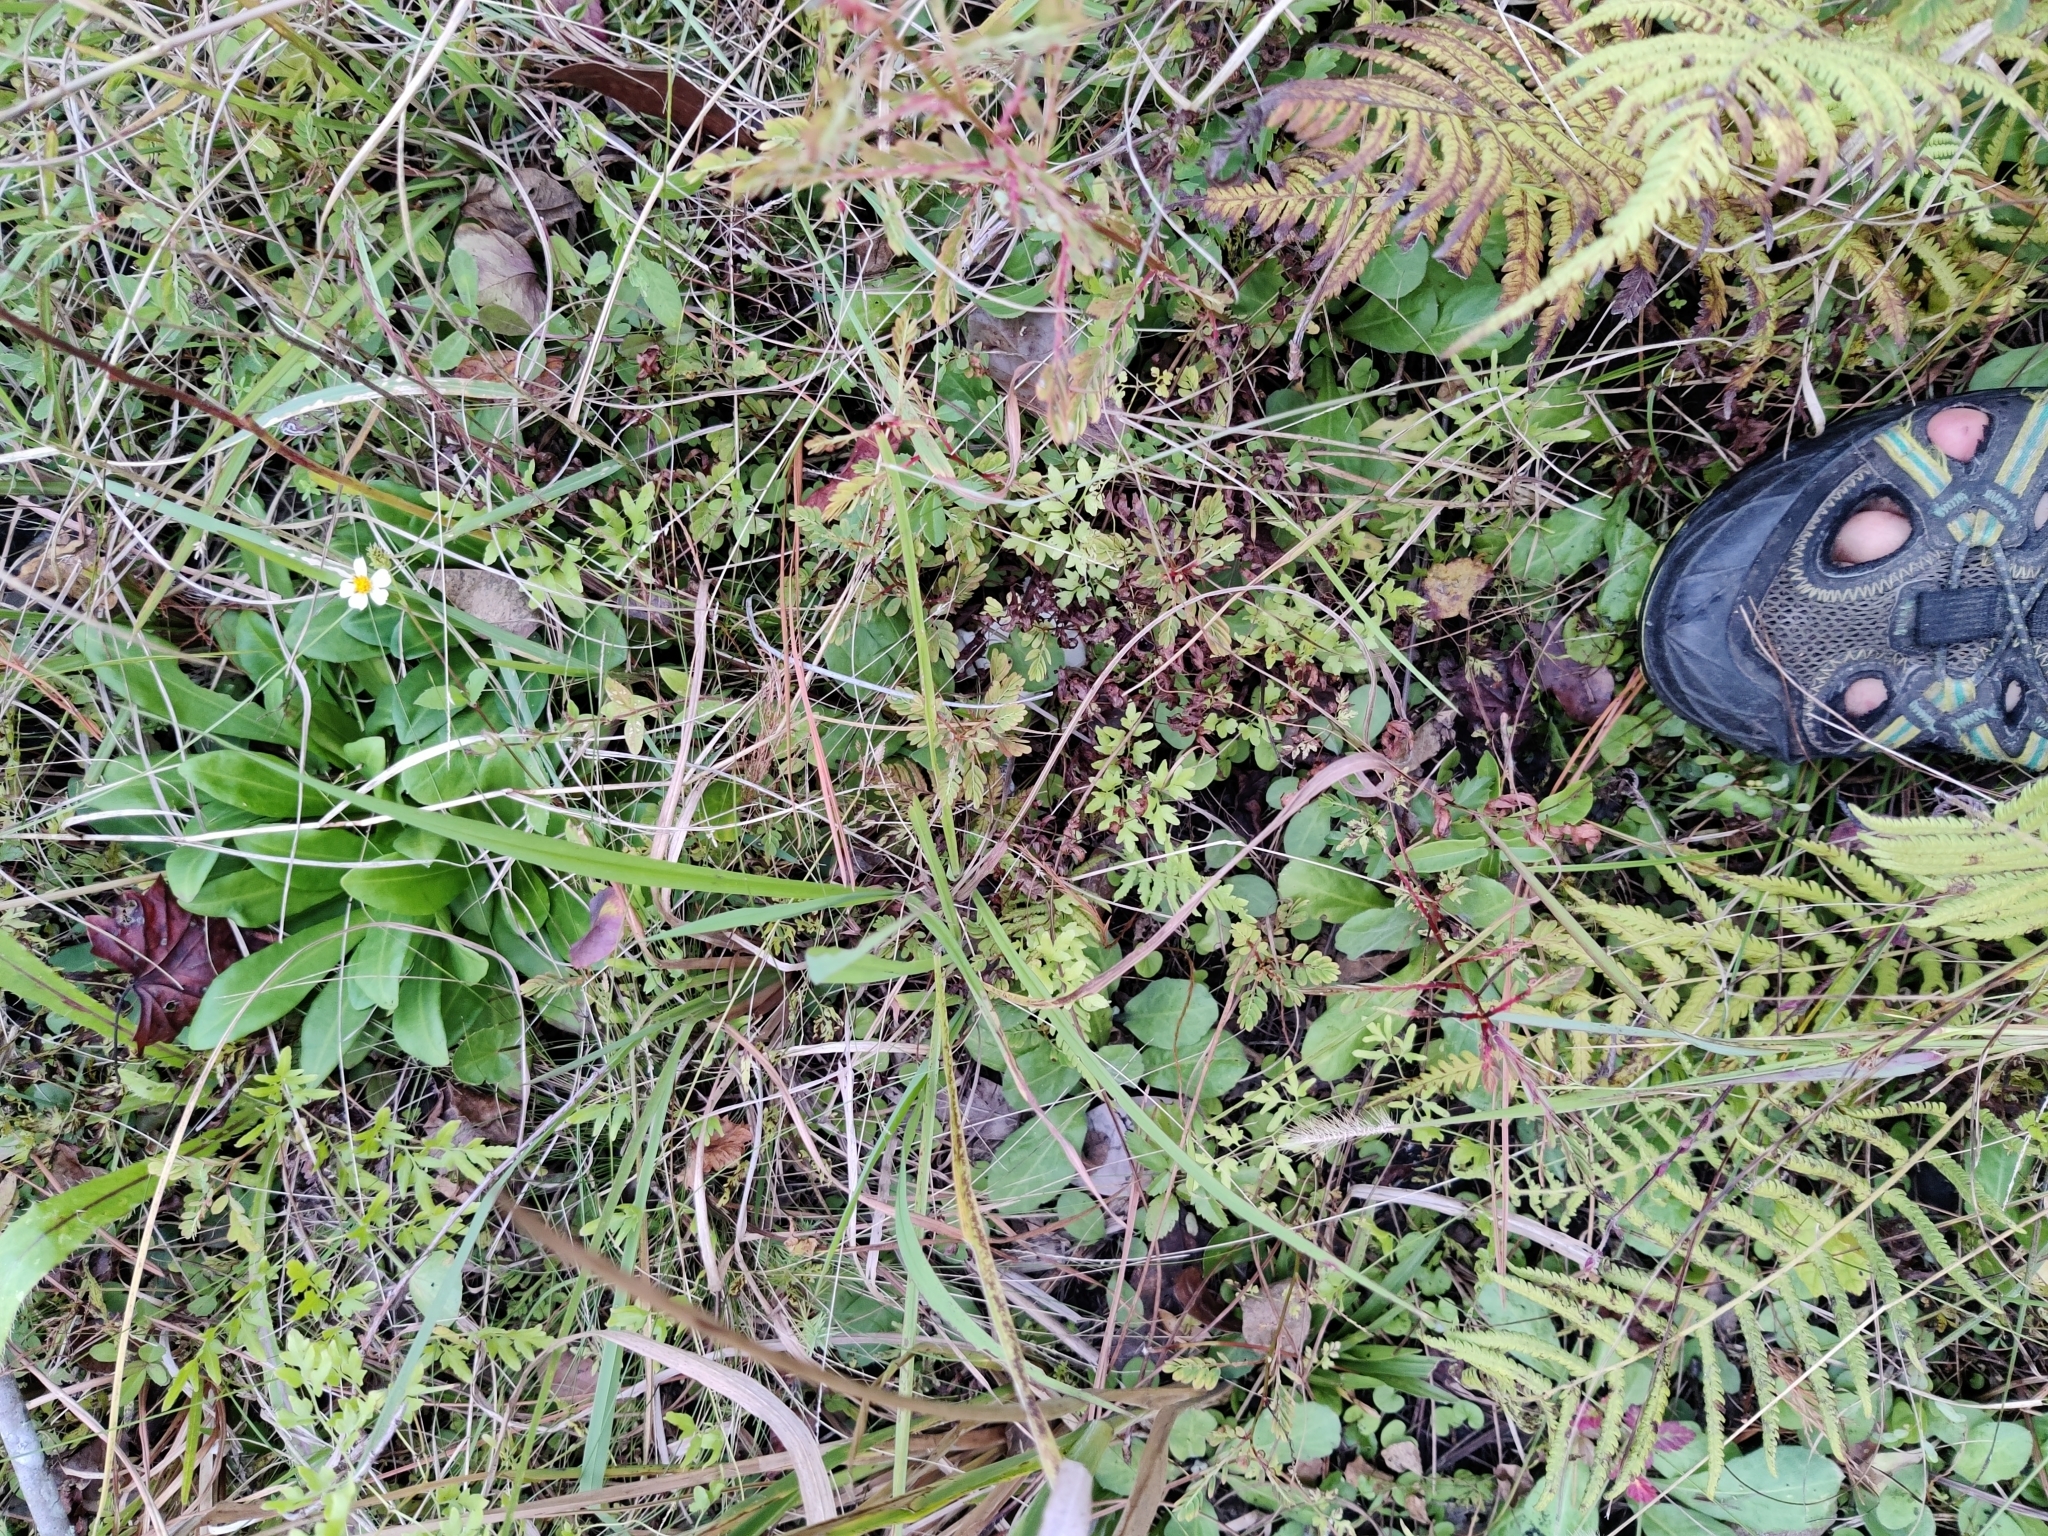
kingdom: Plantae
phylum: Tracheophyta
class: Magnoliopsida
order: Myrtales
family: Onagraceae
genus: Ludwigia
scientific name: Ludwigia microcarpa
